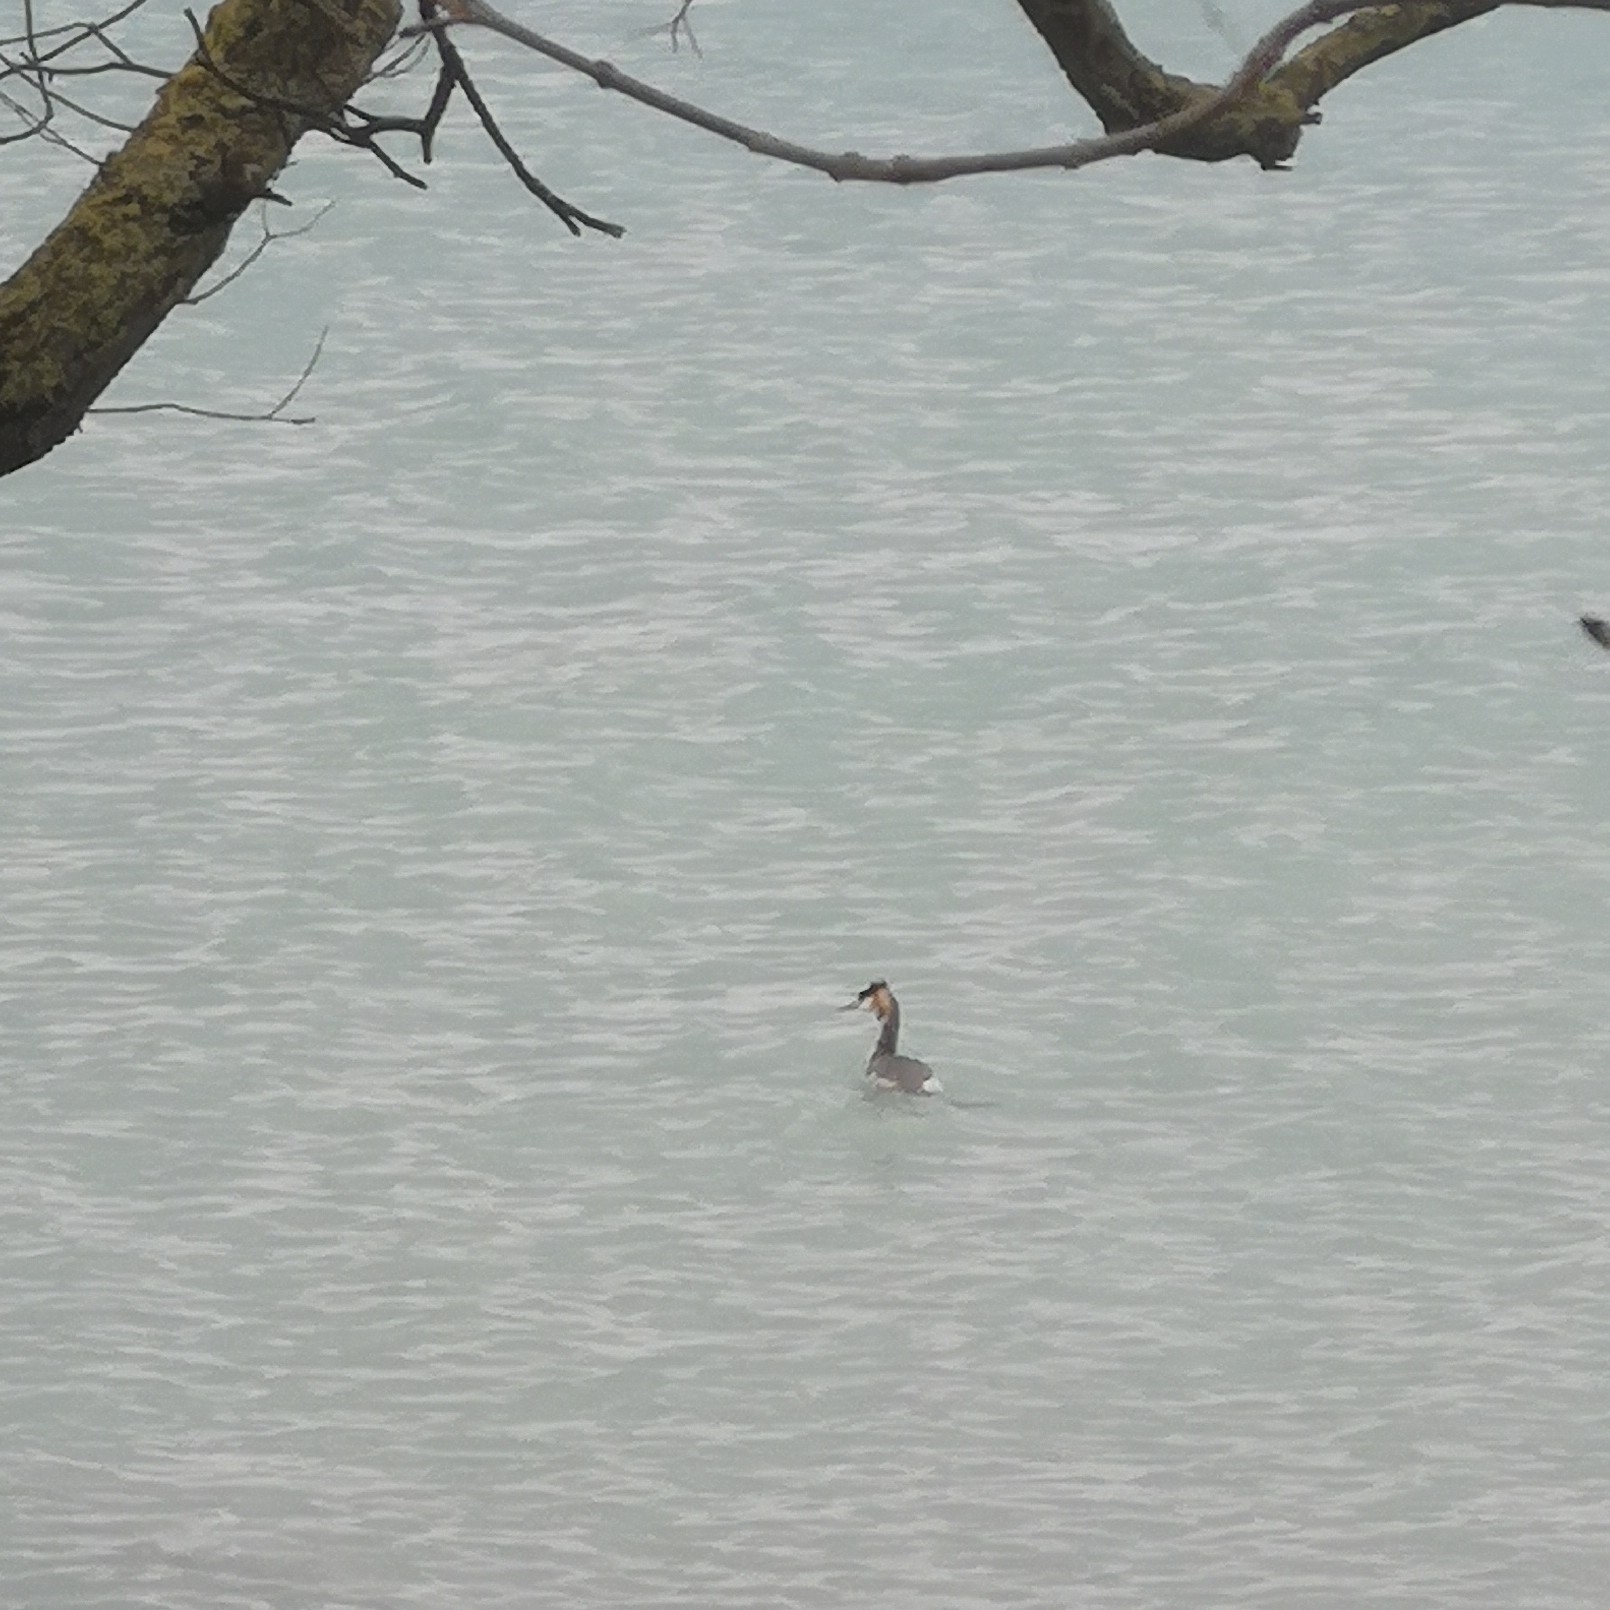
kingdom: Animalia
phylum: Chordata
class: Aves
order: Podicipediformes
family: Podicipedidae
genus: Podiceps
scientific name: Podiceps cristatus
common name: Great crested grebe
